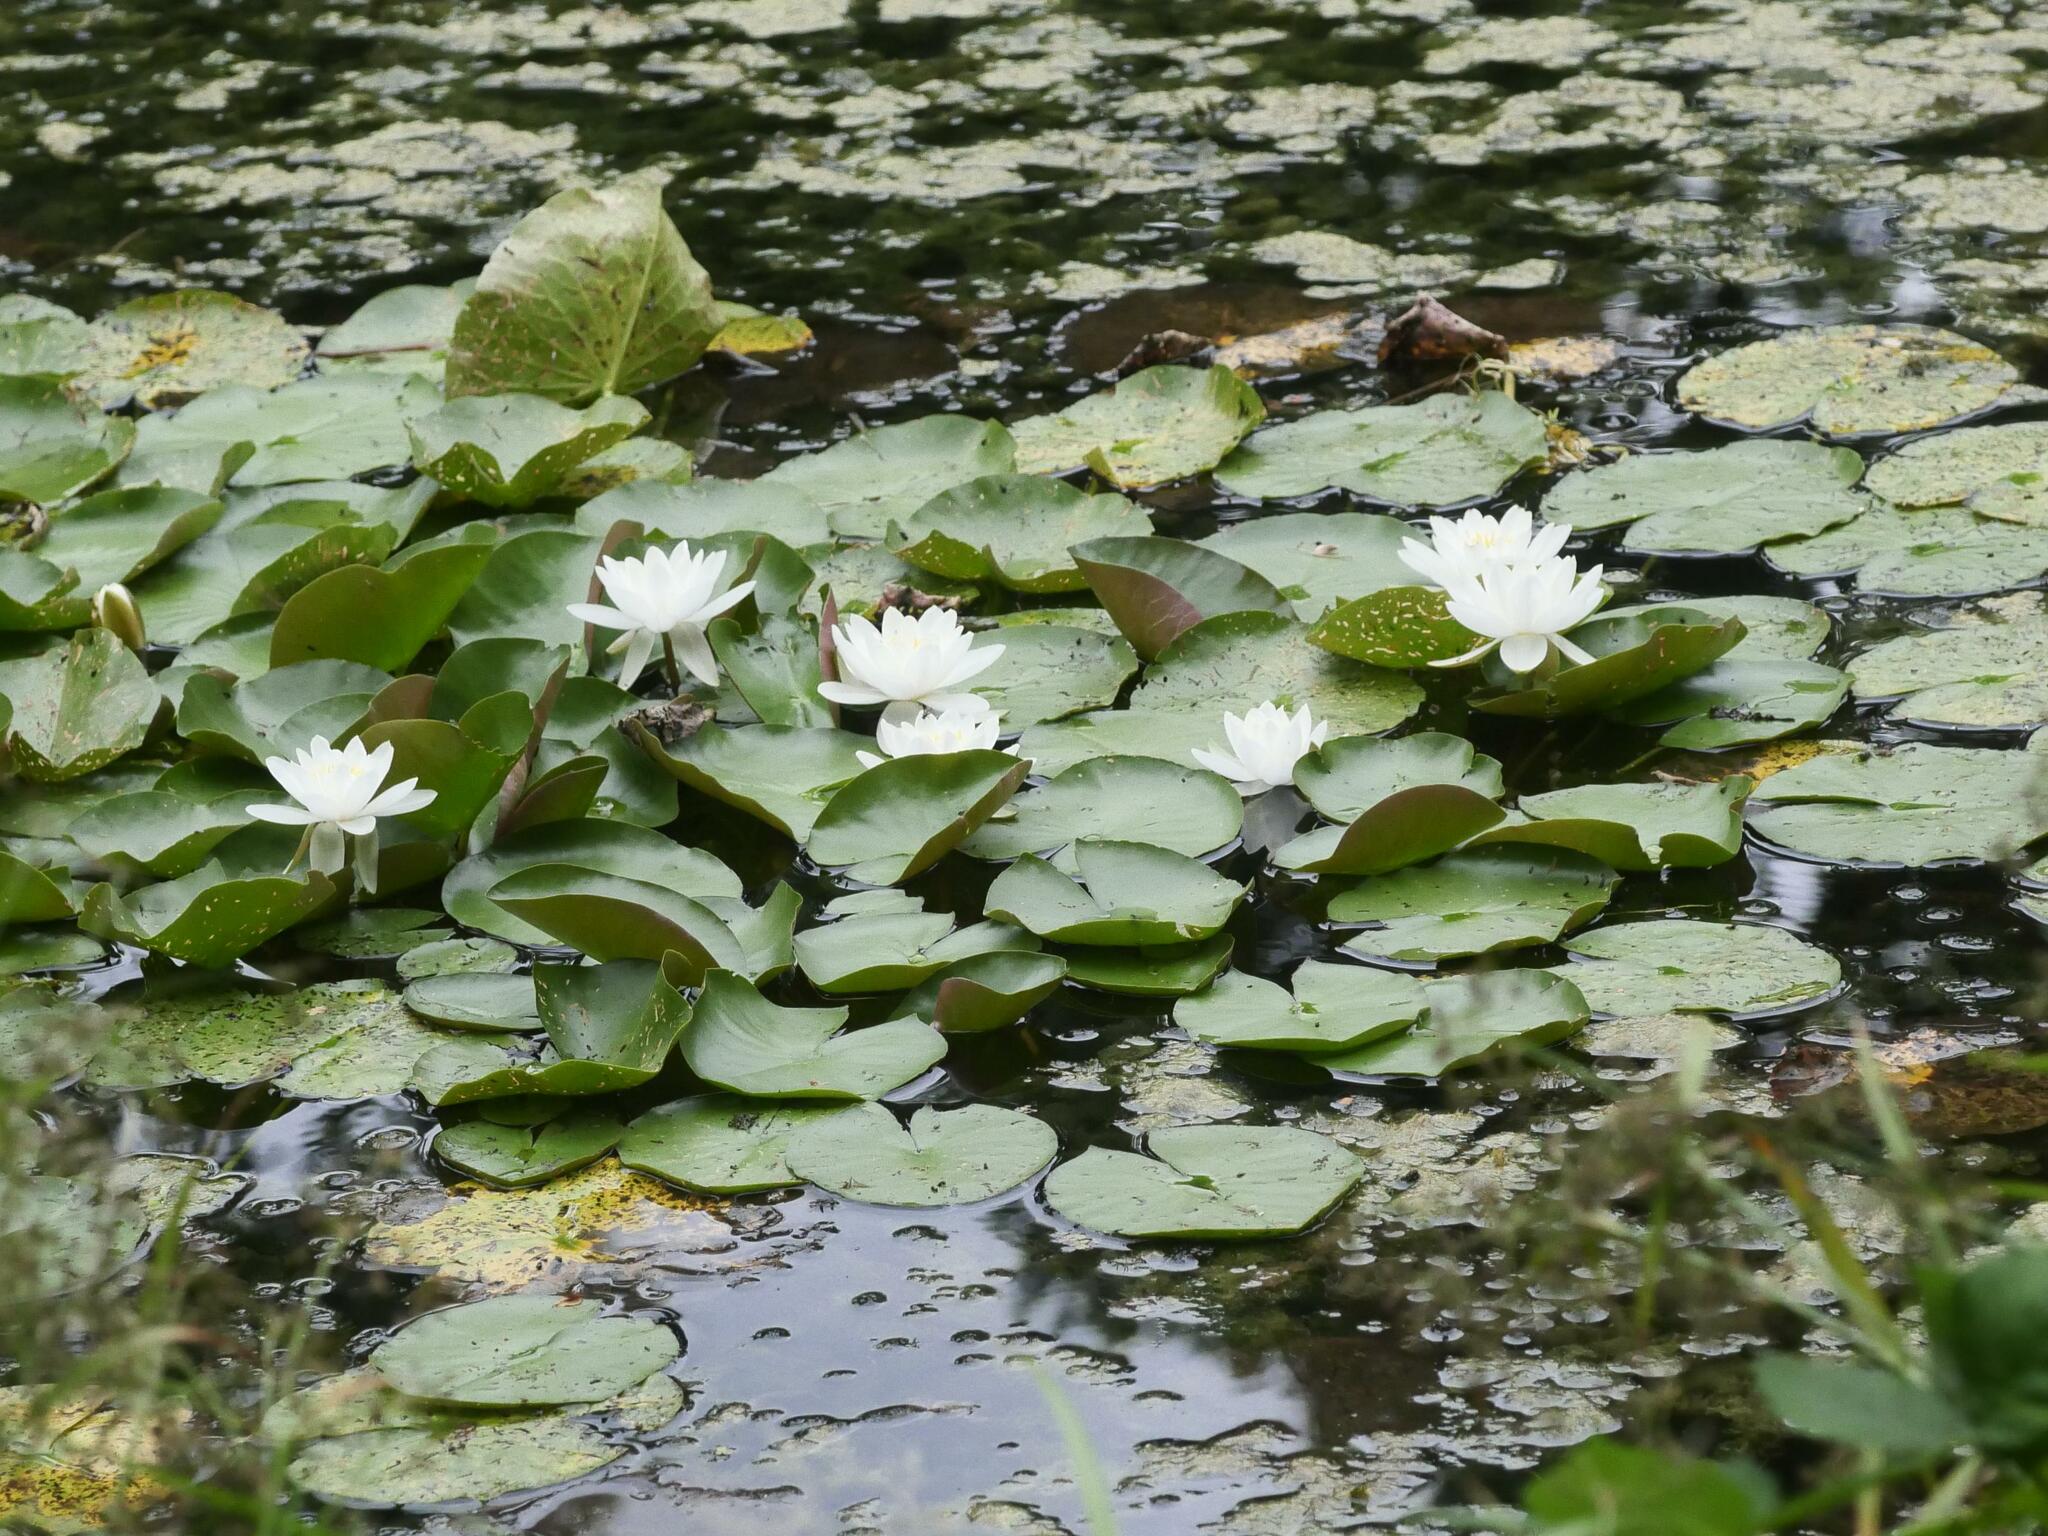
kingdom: Plantae
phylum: Tracheophyta
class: Magnoliopsida
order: Nymphaeales
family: Nymphaeaceae
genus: Nymphaea
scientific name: Nymphaea alba
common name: White water-lily
